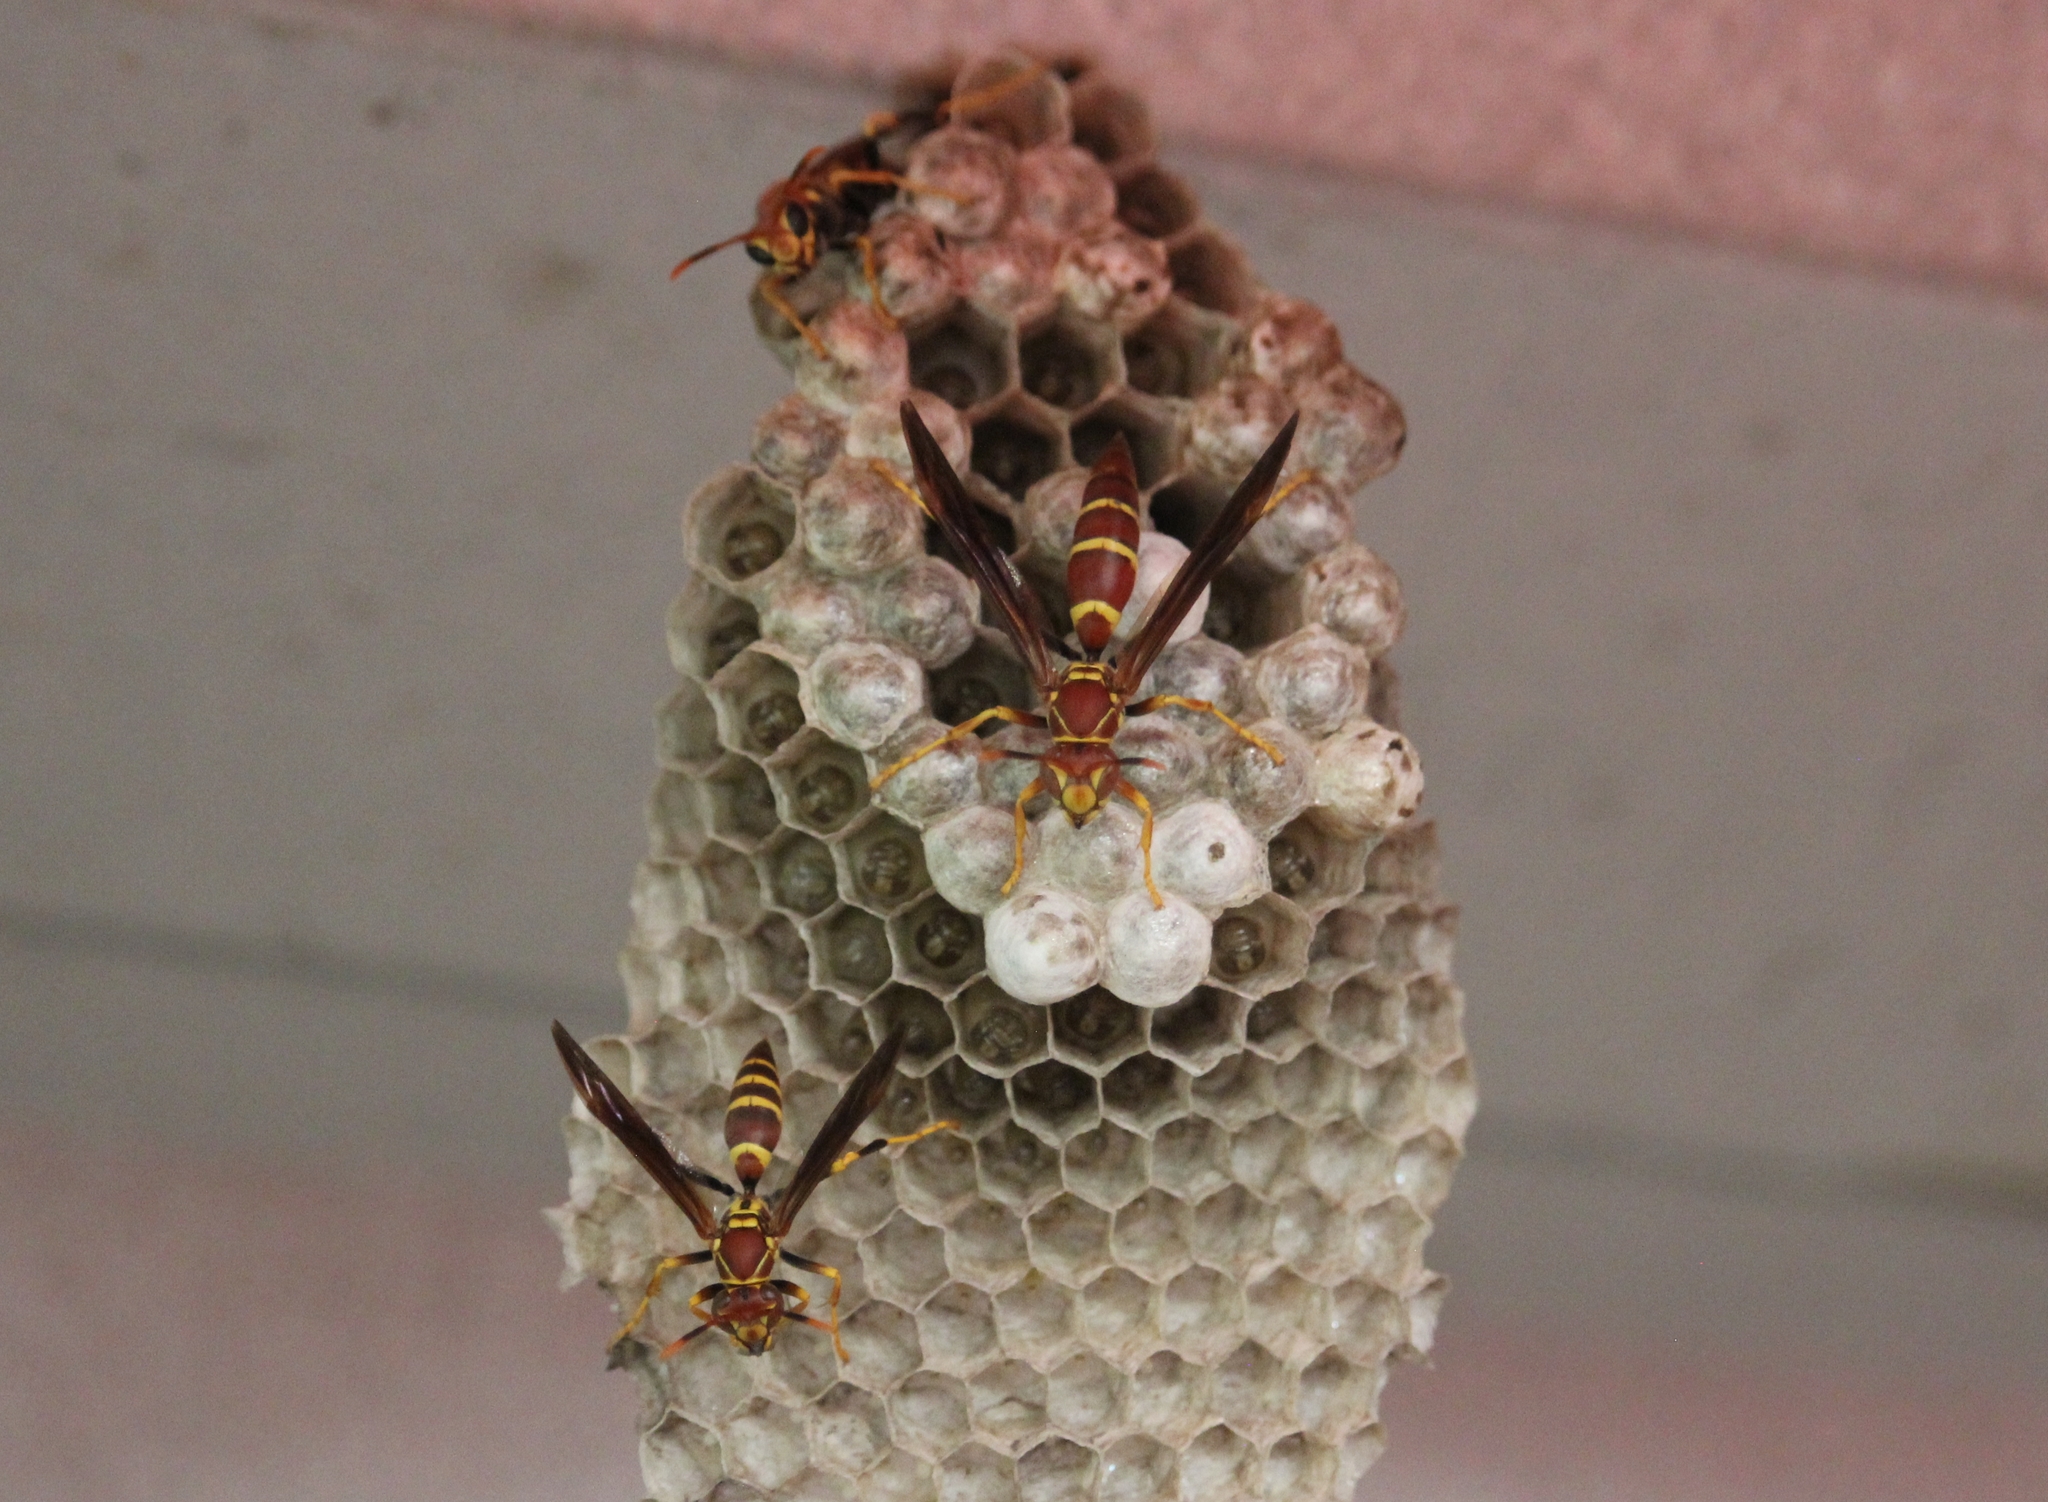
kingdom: Animalia
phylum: Arthropoda
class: Insecta
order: Hymenoptera
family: Eumenidae
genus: Polistes
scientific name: Polistes instabilis
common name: Unstable paper wasp
